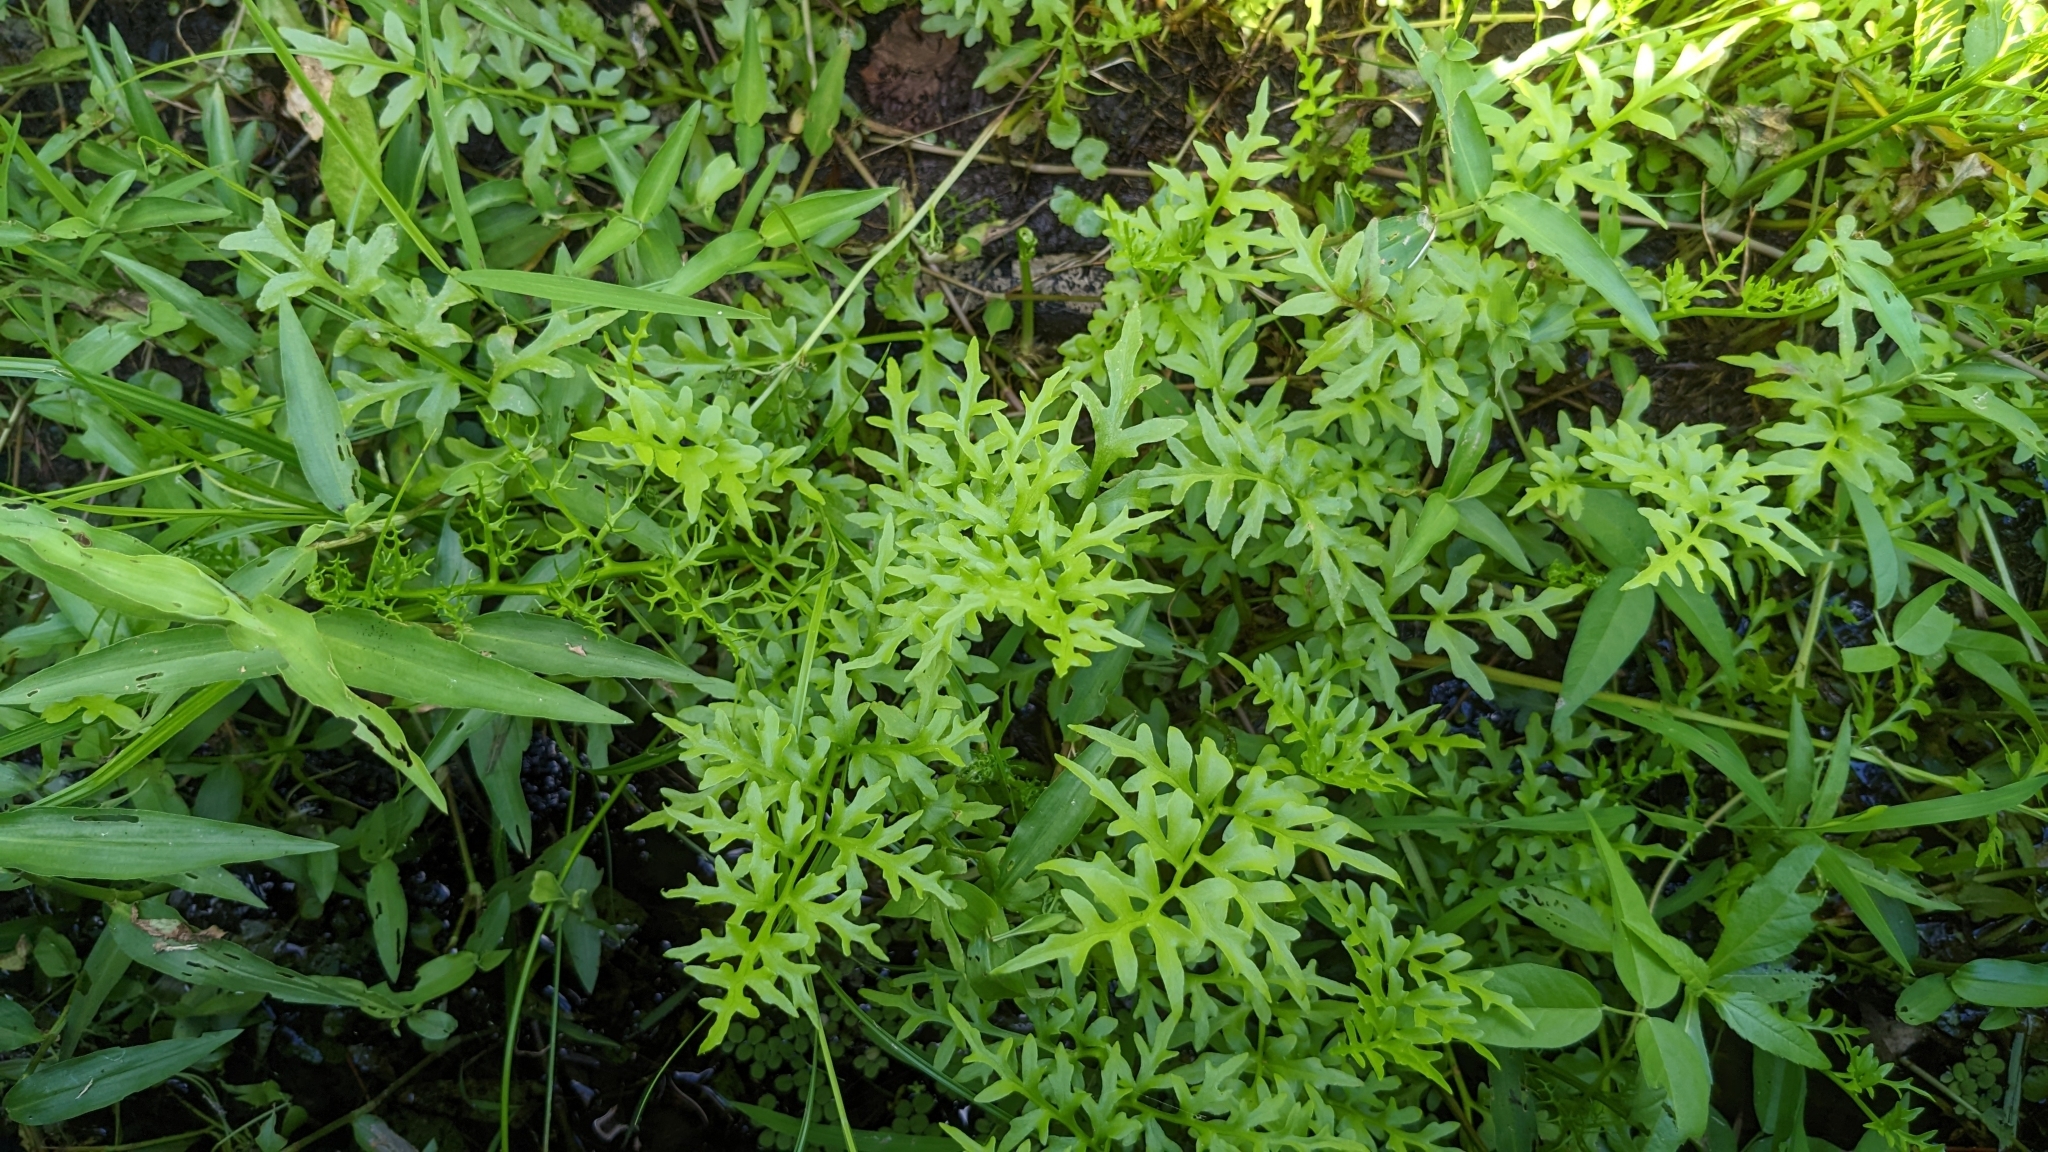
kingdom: Plantae
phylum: Tracheophyta
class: Polypodiopsida
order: Polypodiales
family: Pteridaceae
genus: Ceratopteris
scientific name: Ceratopteris thalictroides
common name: Water fern
